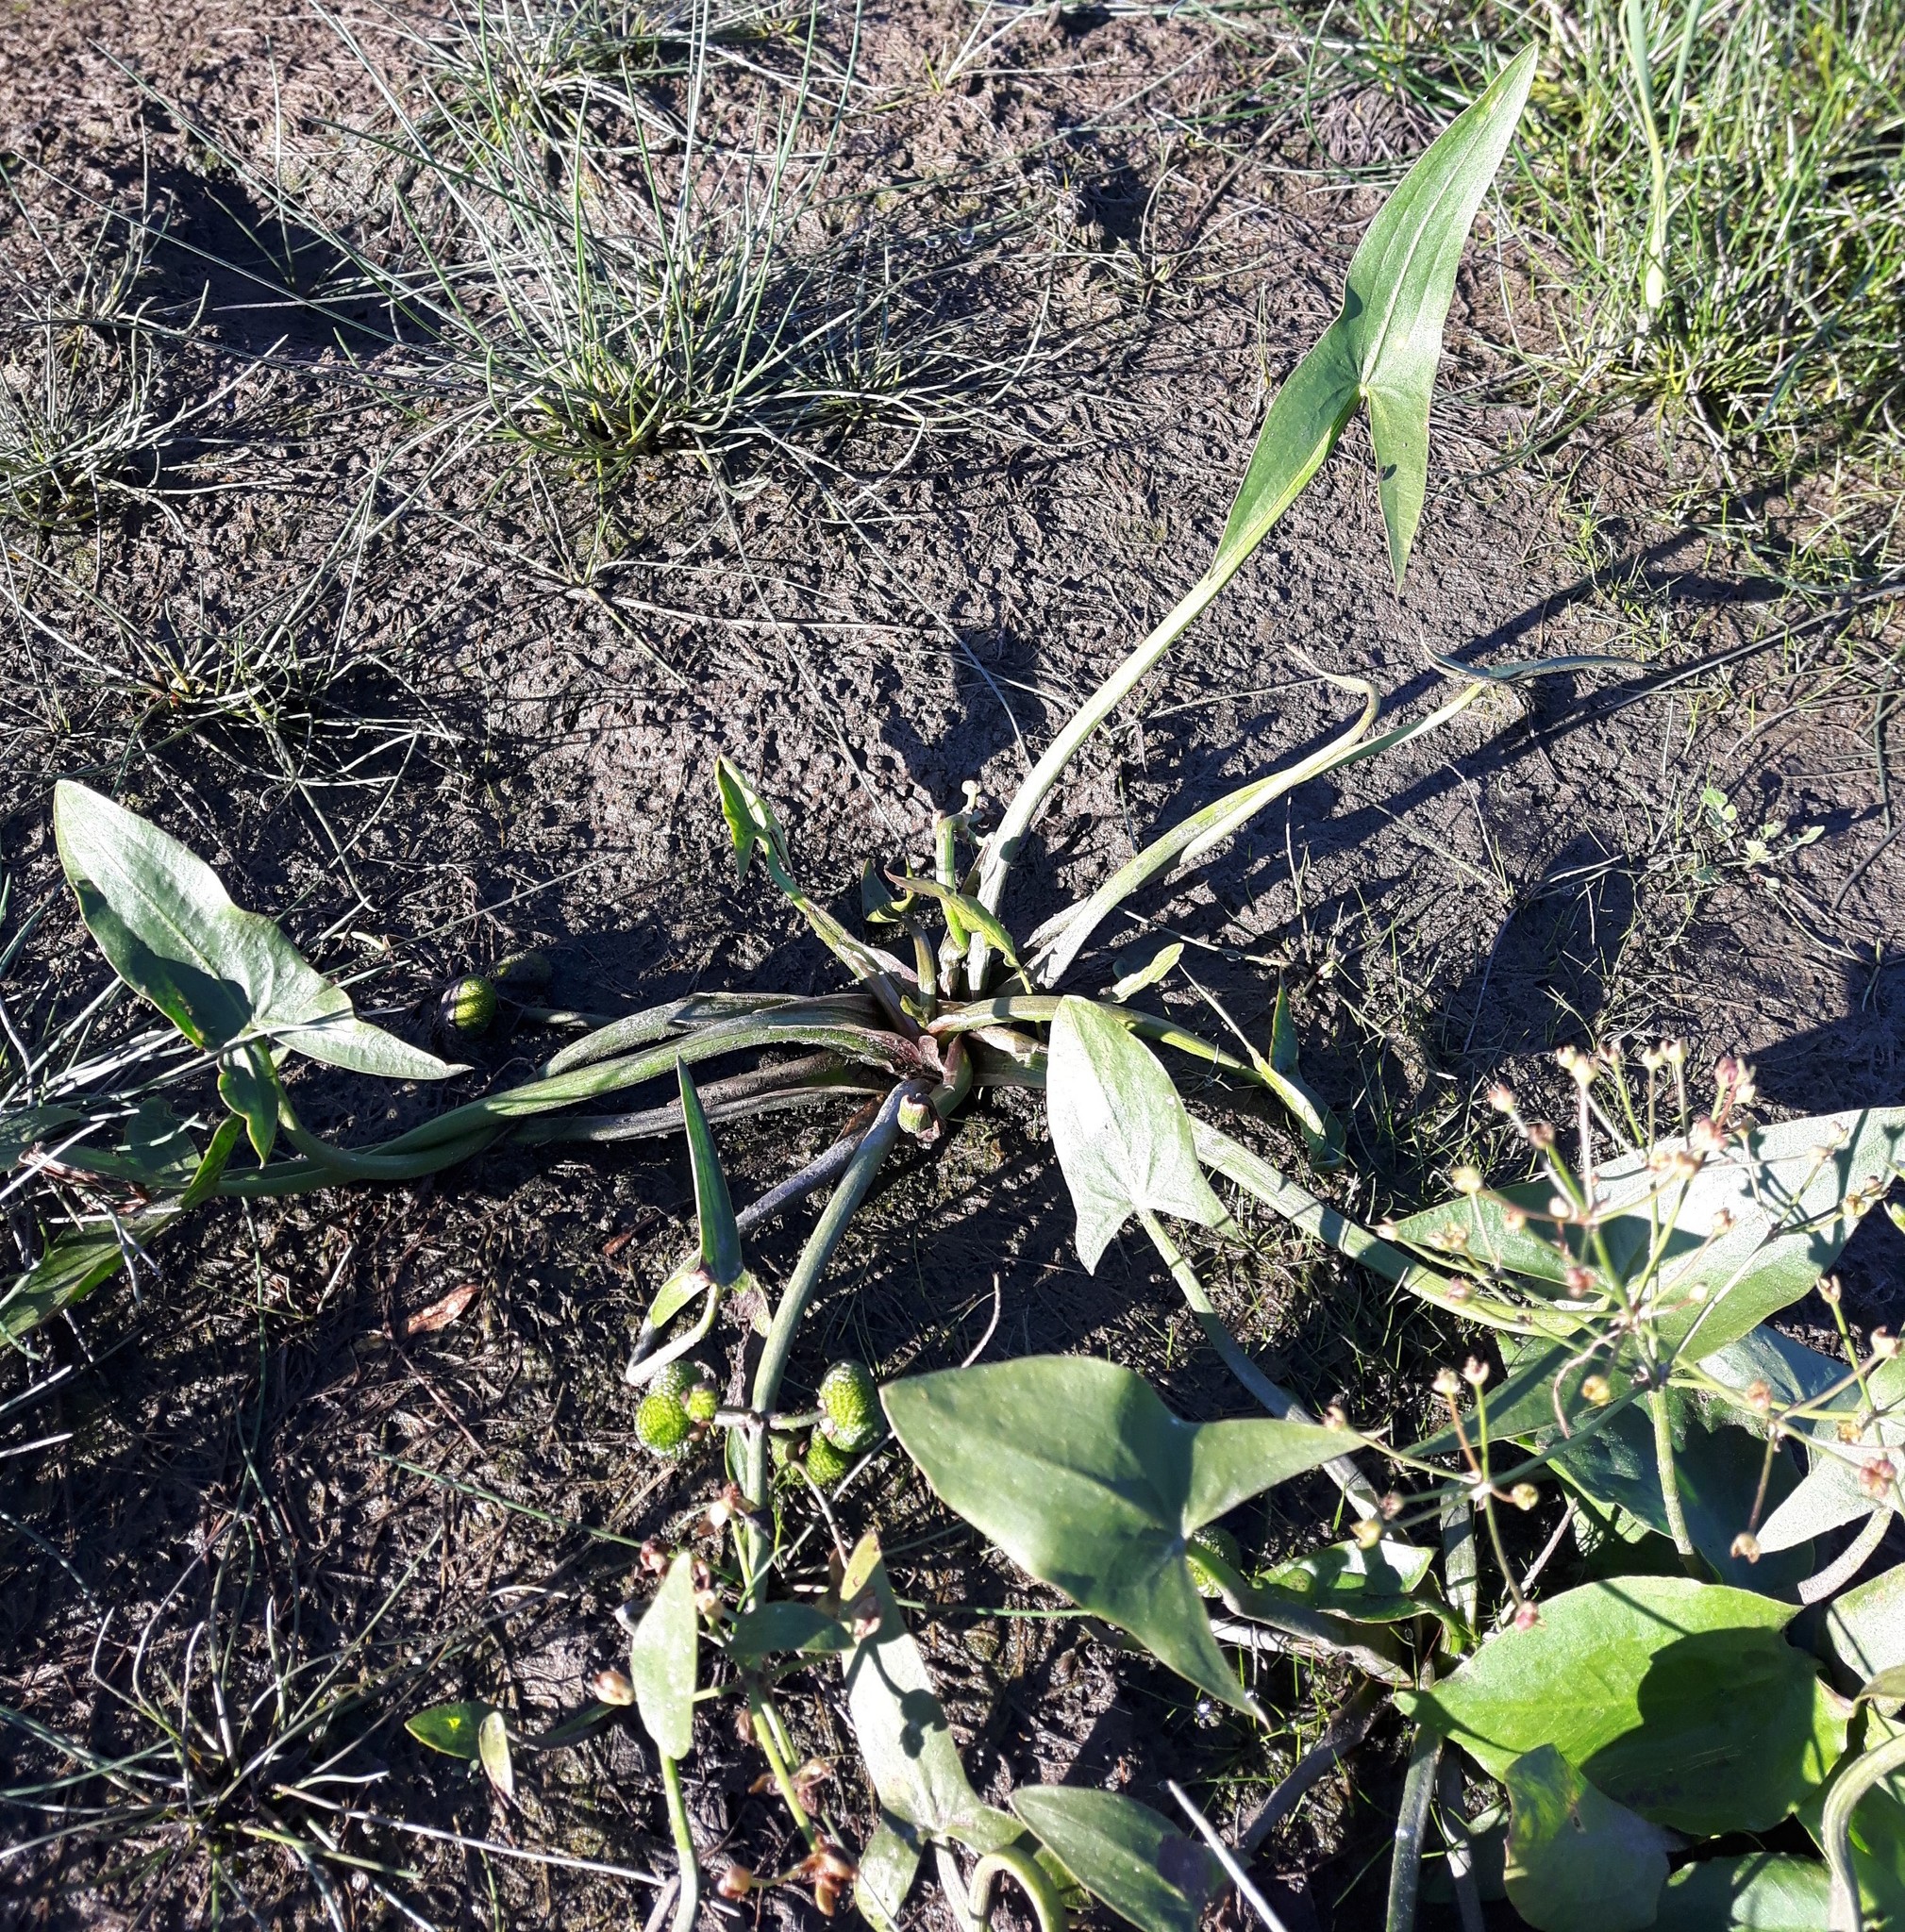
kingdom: Plantae
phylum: Tracheophyta
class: Liliopsida
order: Alismatales
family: Alismataceae
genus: Sagittaria
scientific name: Sagittaria cuneata
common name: Northern arrowhead
